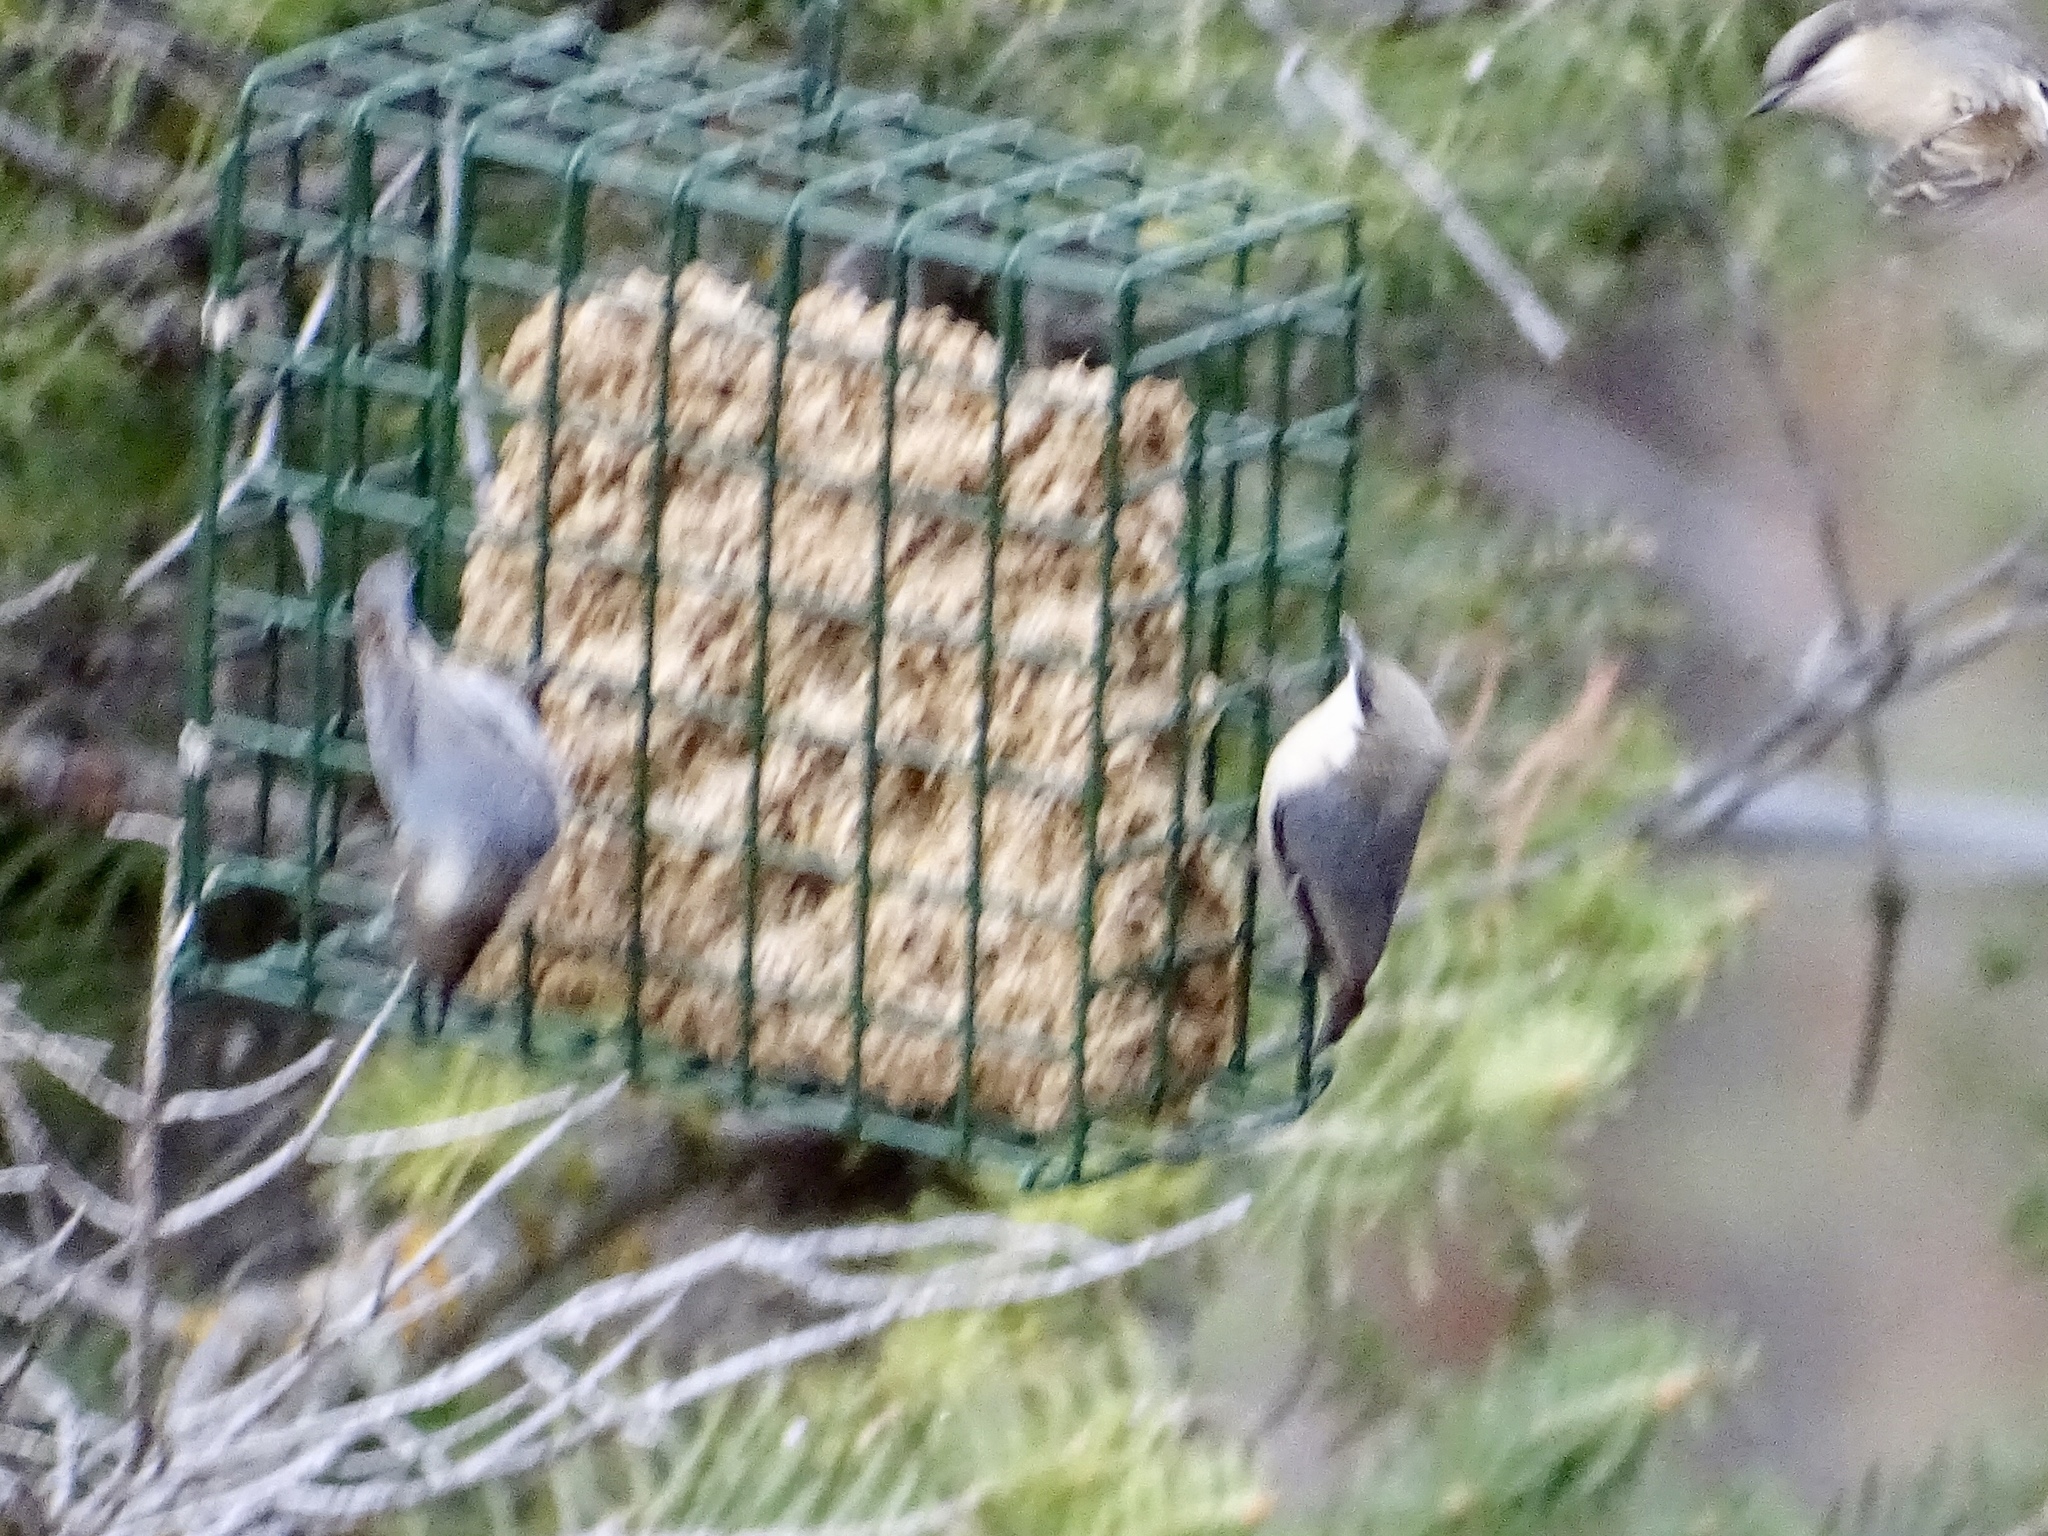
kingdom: Animalia
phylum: Chordata
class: Aves
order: Passeriformes
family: Sittidae
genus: Sitta
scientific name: Sitta pygmaea
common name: Pygmy nuthatch
